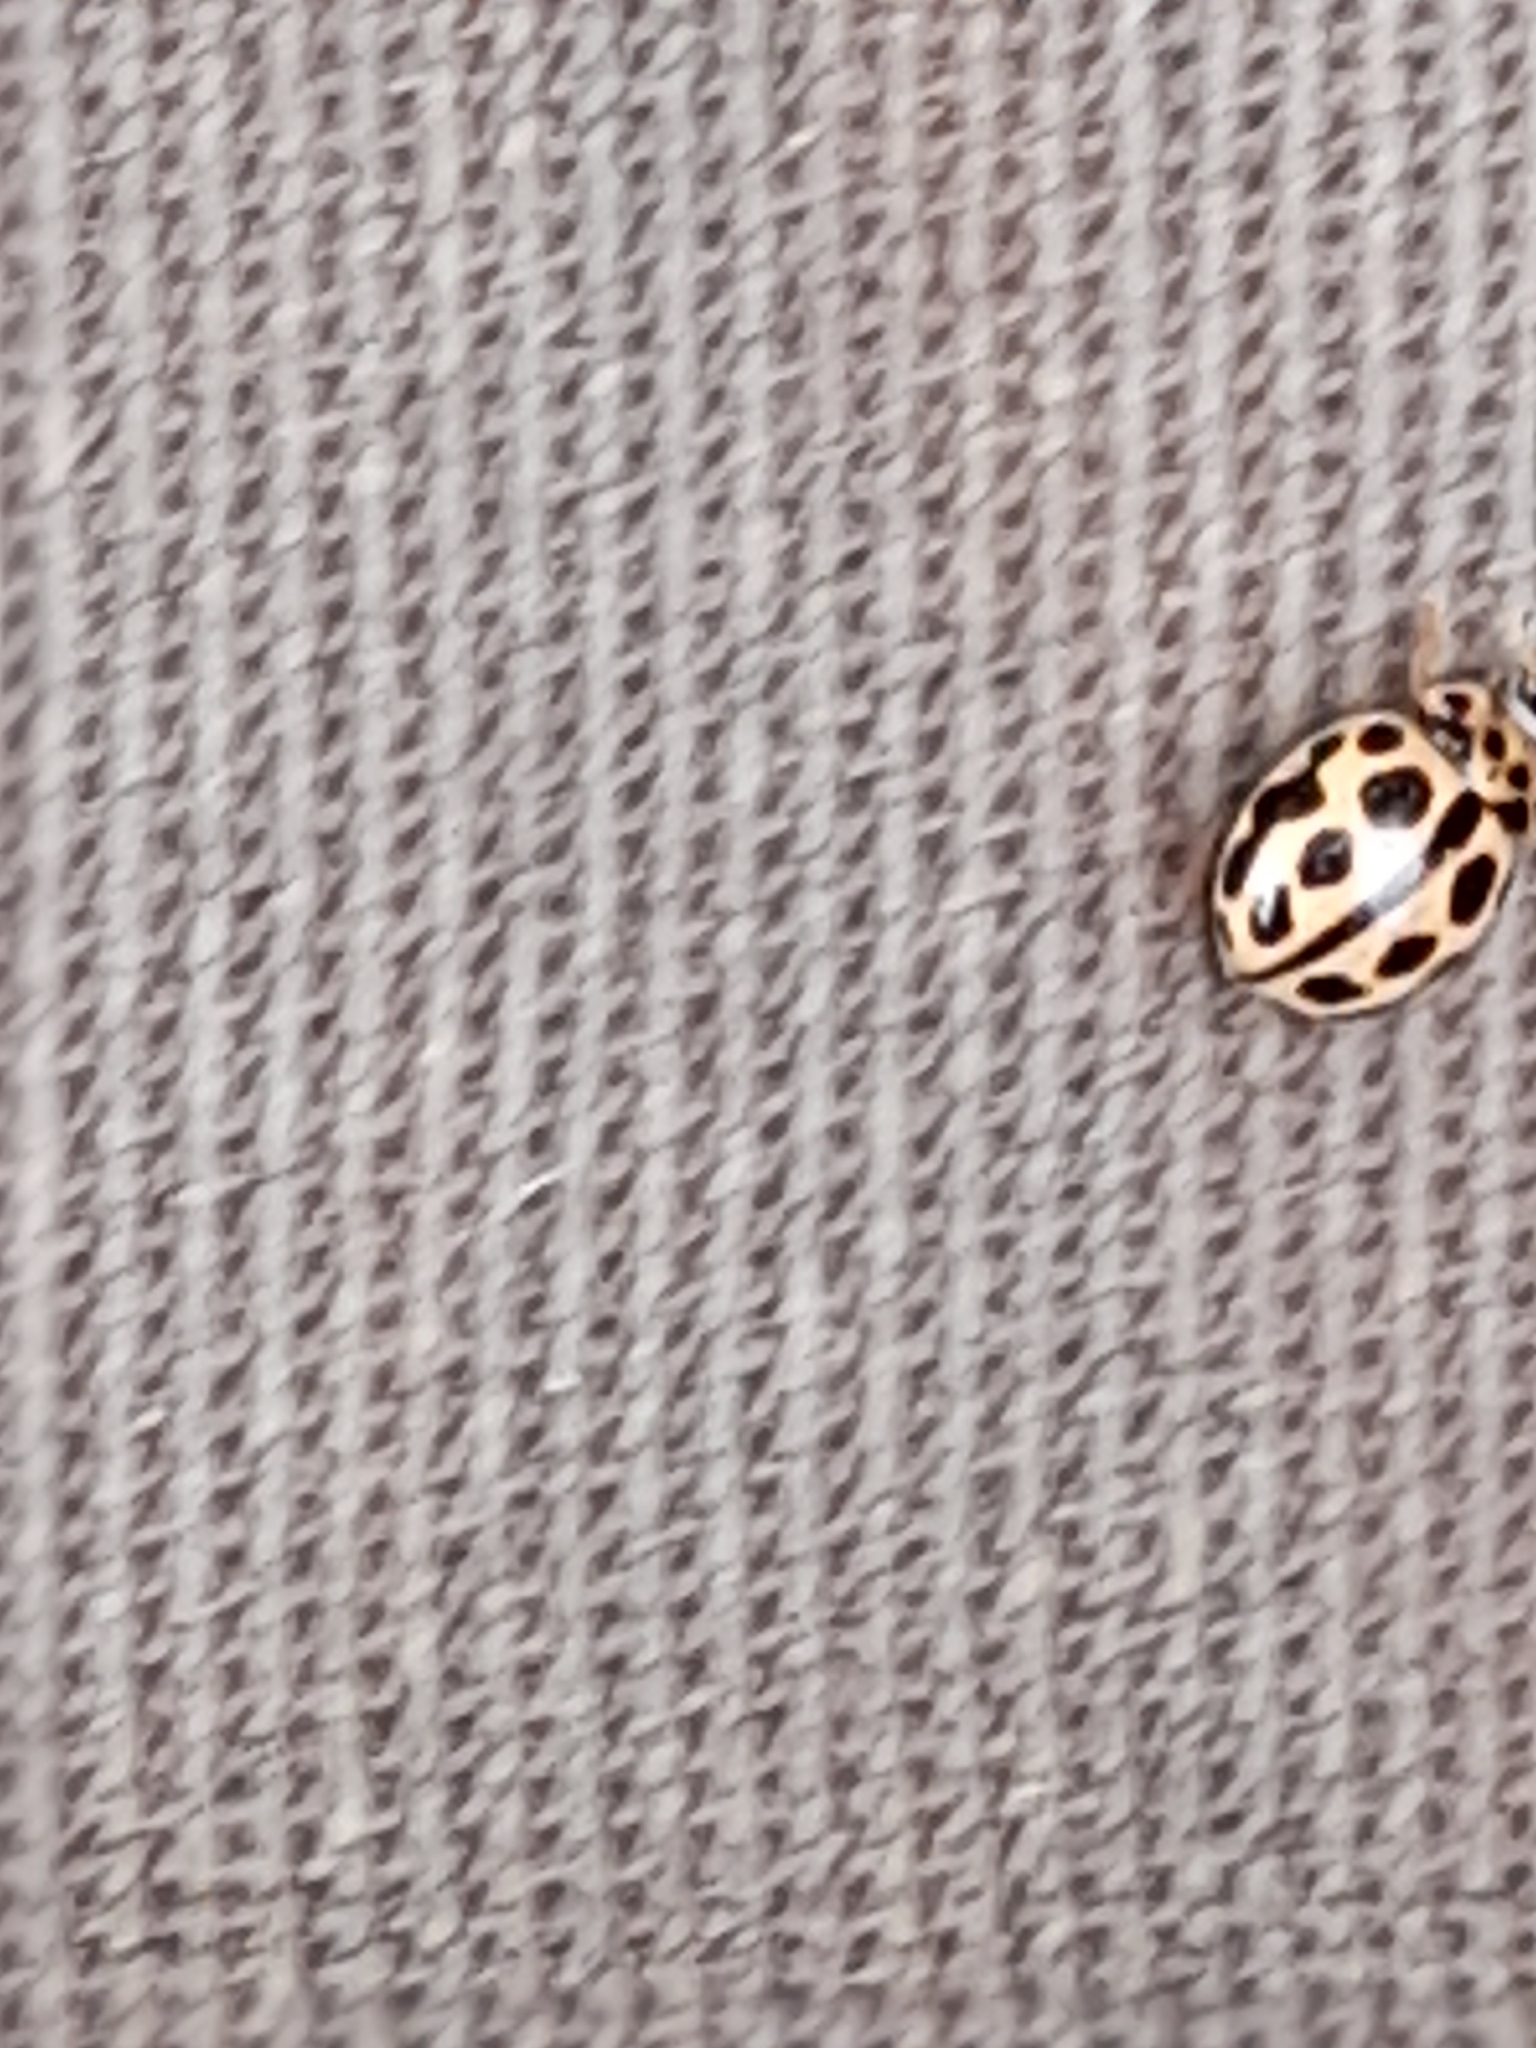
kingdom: Animalia
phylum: Arthropoda
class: Insecta
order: Coleoptera
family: Coccinellidae
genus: Tytthaspis
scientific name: Tytthaspis sedecimpunctata
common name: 16-spot ladybird
